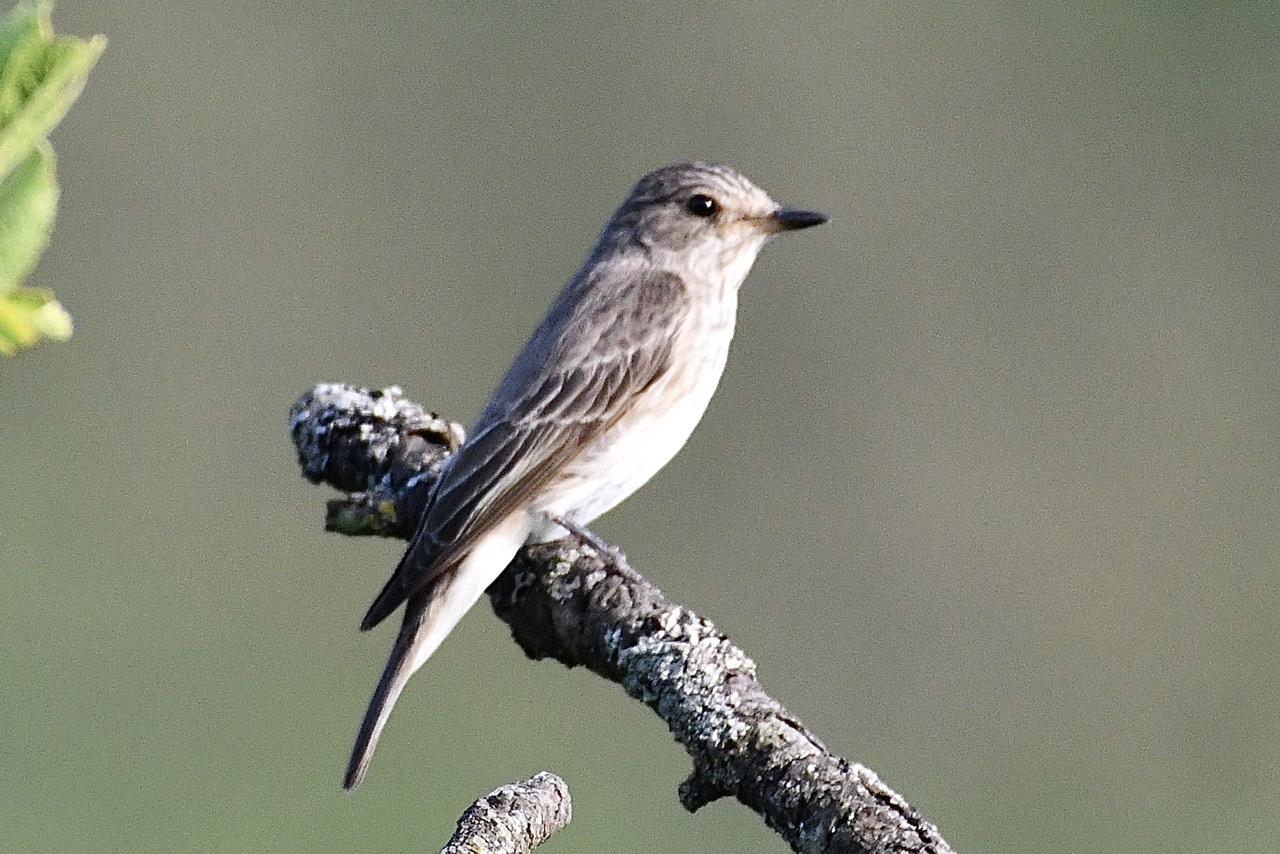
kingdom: Animalia
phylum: Chordata
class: Aves
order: Passeriformes
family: Muscicapidae
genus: Muscicapa
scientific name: Muscicapa striata
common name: Spotted flycatcher
